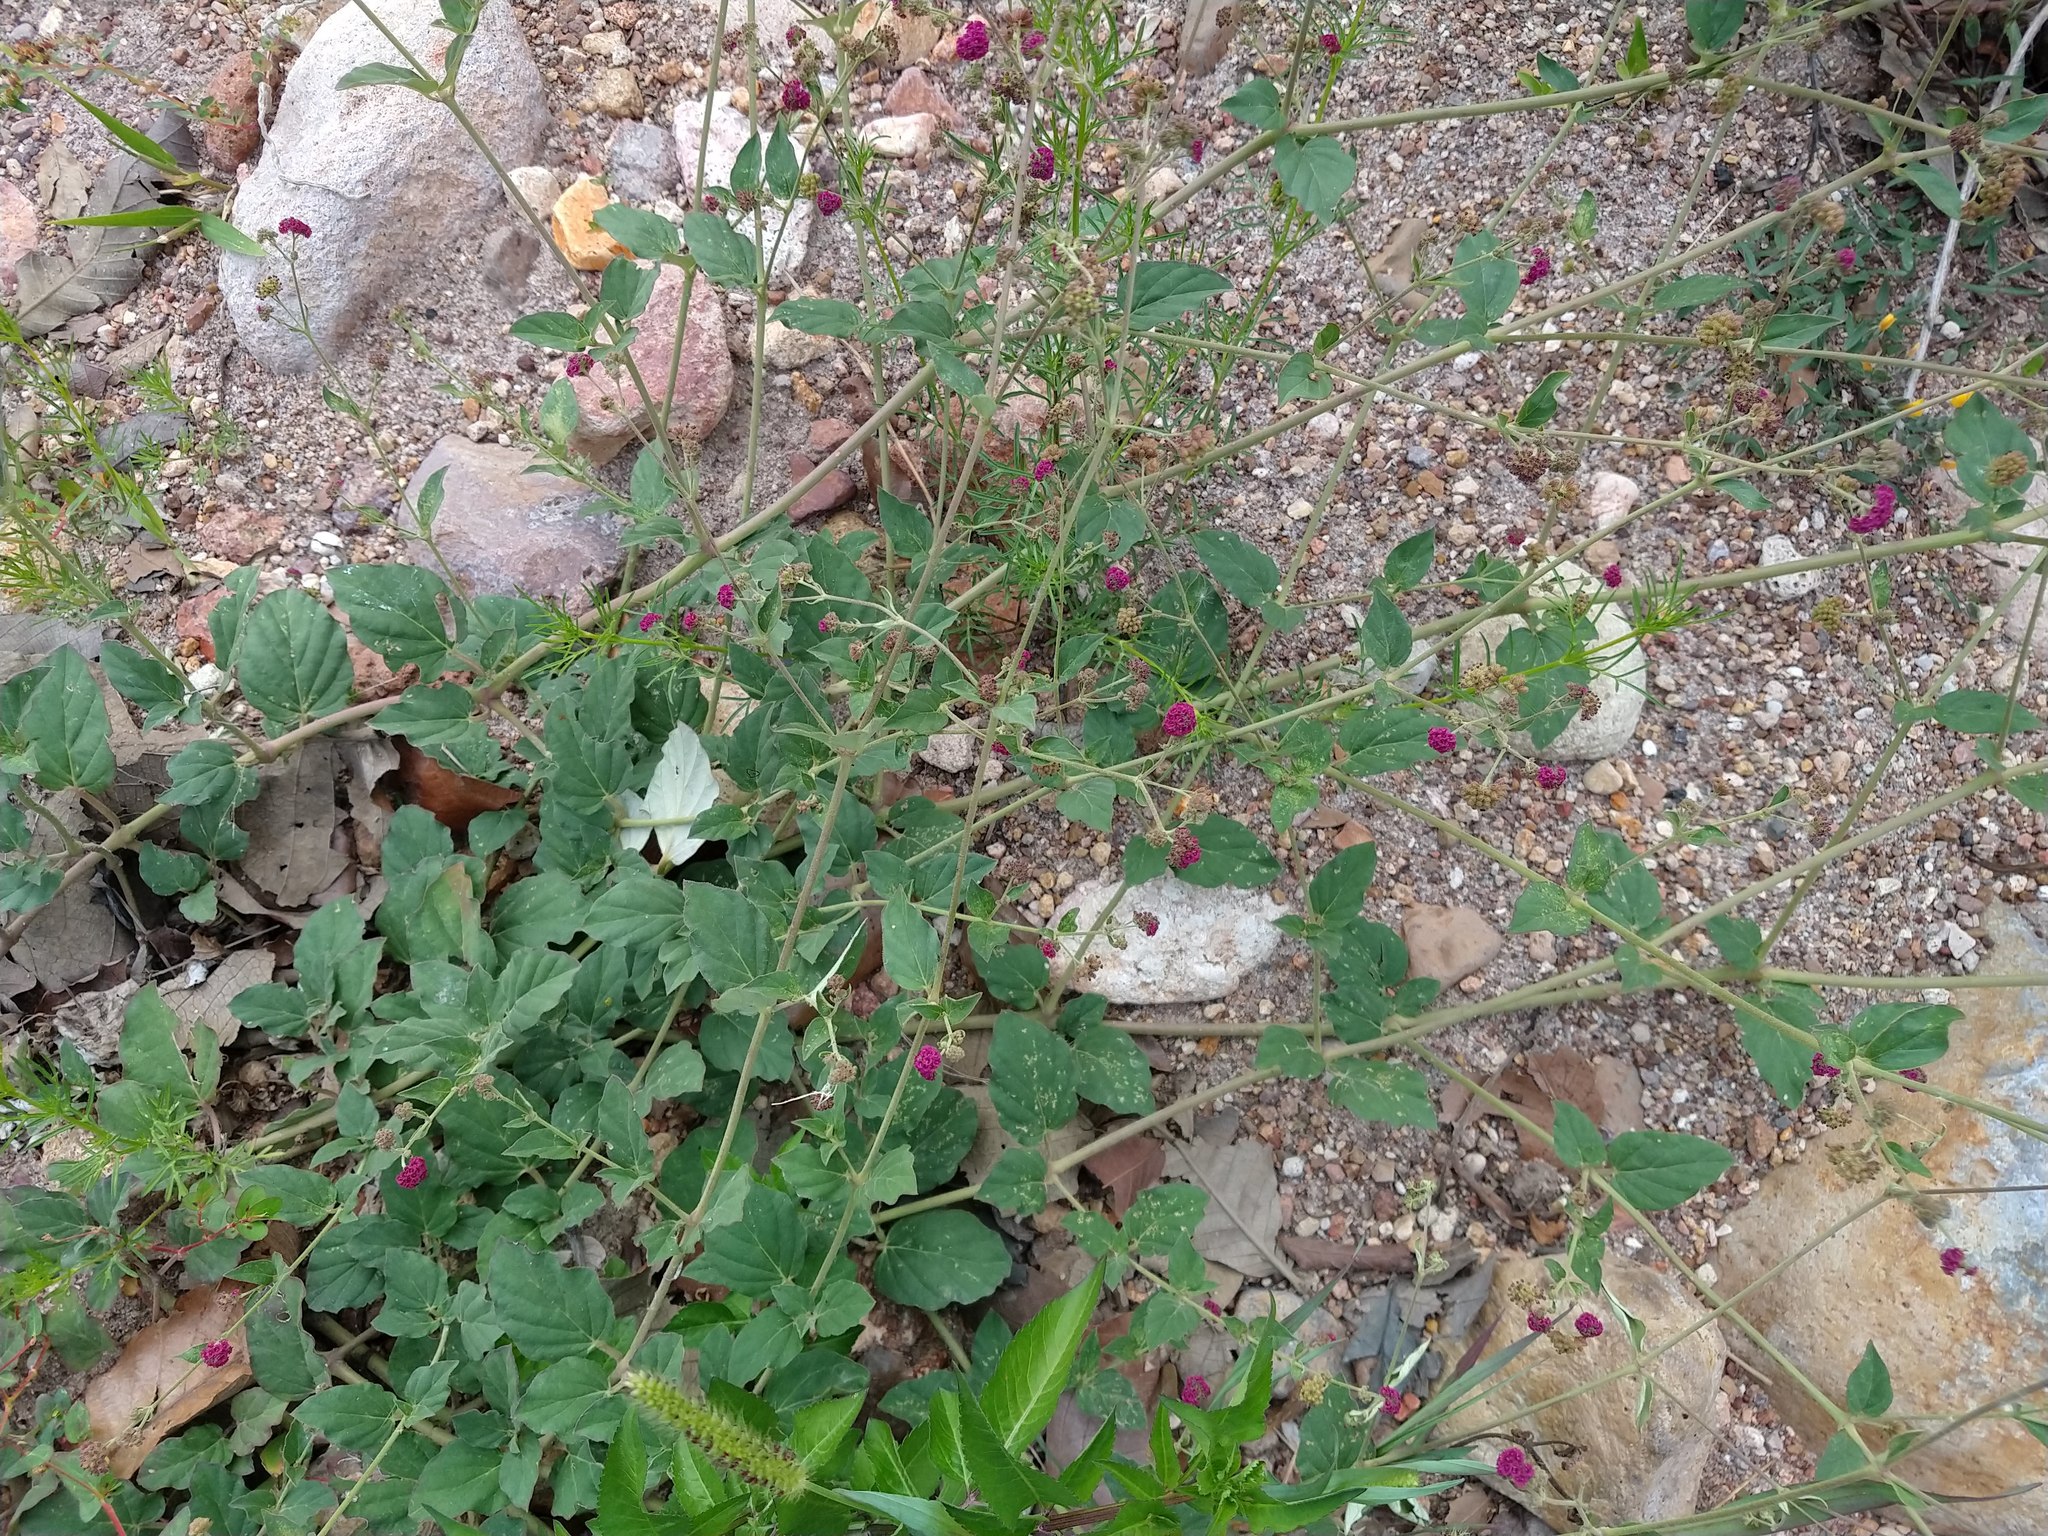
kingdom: Plantae
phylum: Tracheophyta
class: Magnoliopsida
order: Caryophyllales
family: Nyctaginaceae
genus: Boerhavia
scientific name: Boerhavia coccinea
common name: Scarlet spiderling
